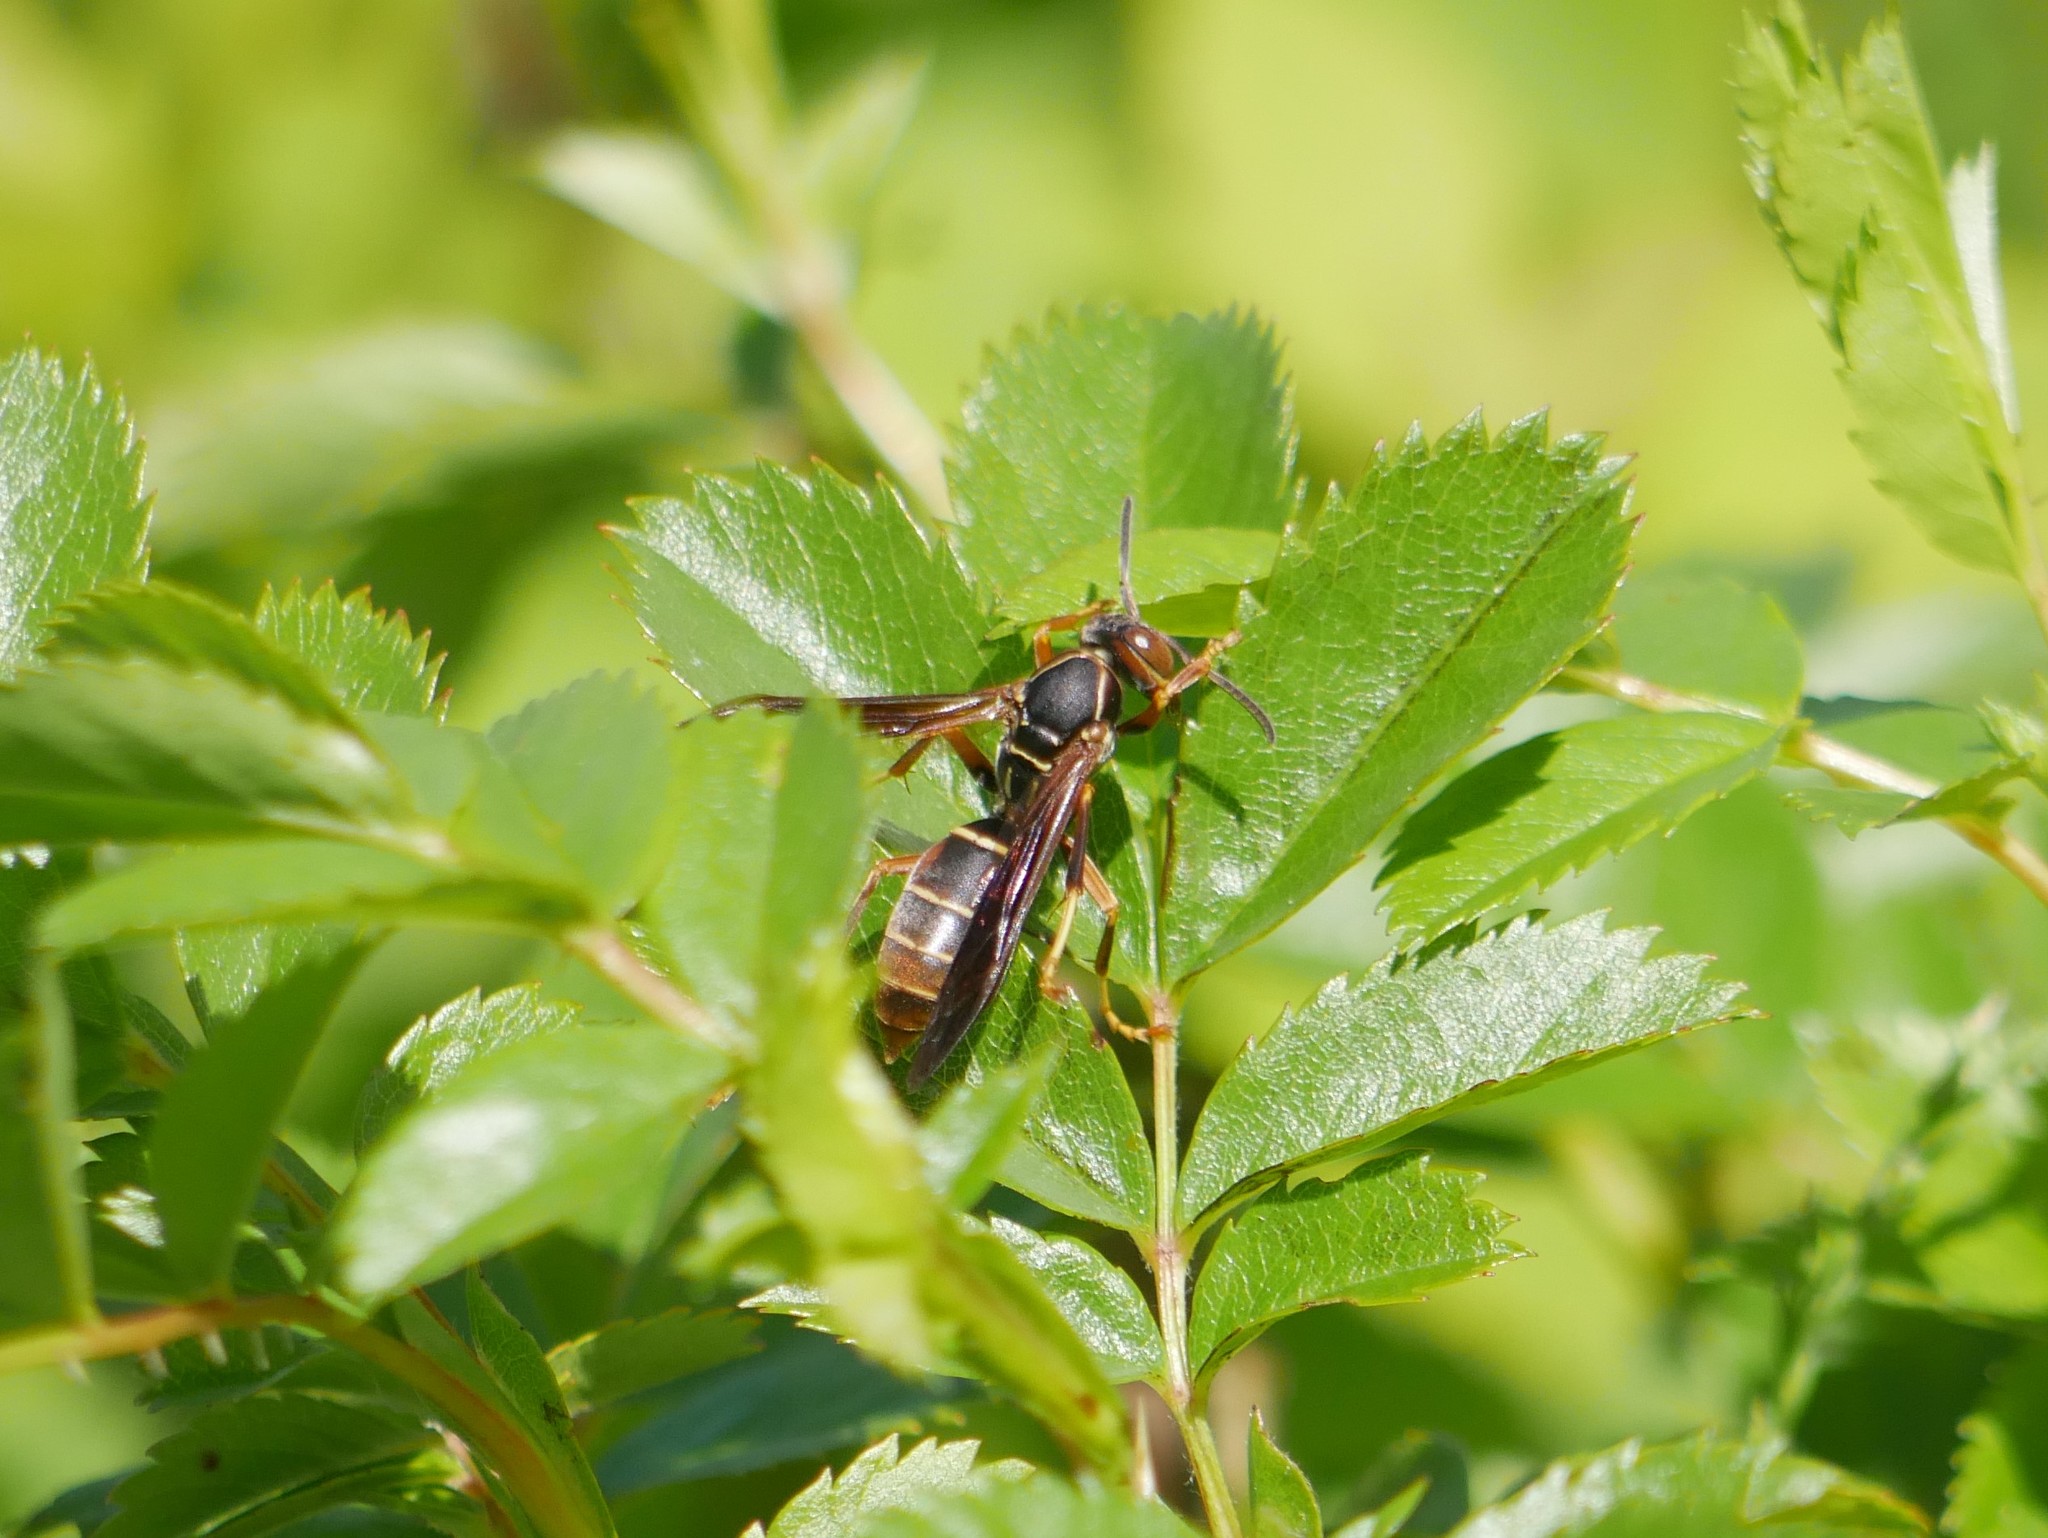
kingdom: Animalia
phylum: Arthropoda
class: Insecta
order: Hymenoptera
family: Eumenidae
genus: Polistes
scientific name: Polistes fuscatus
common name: Dark paper wasp
